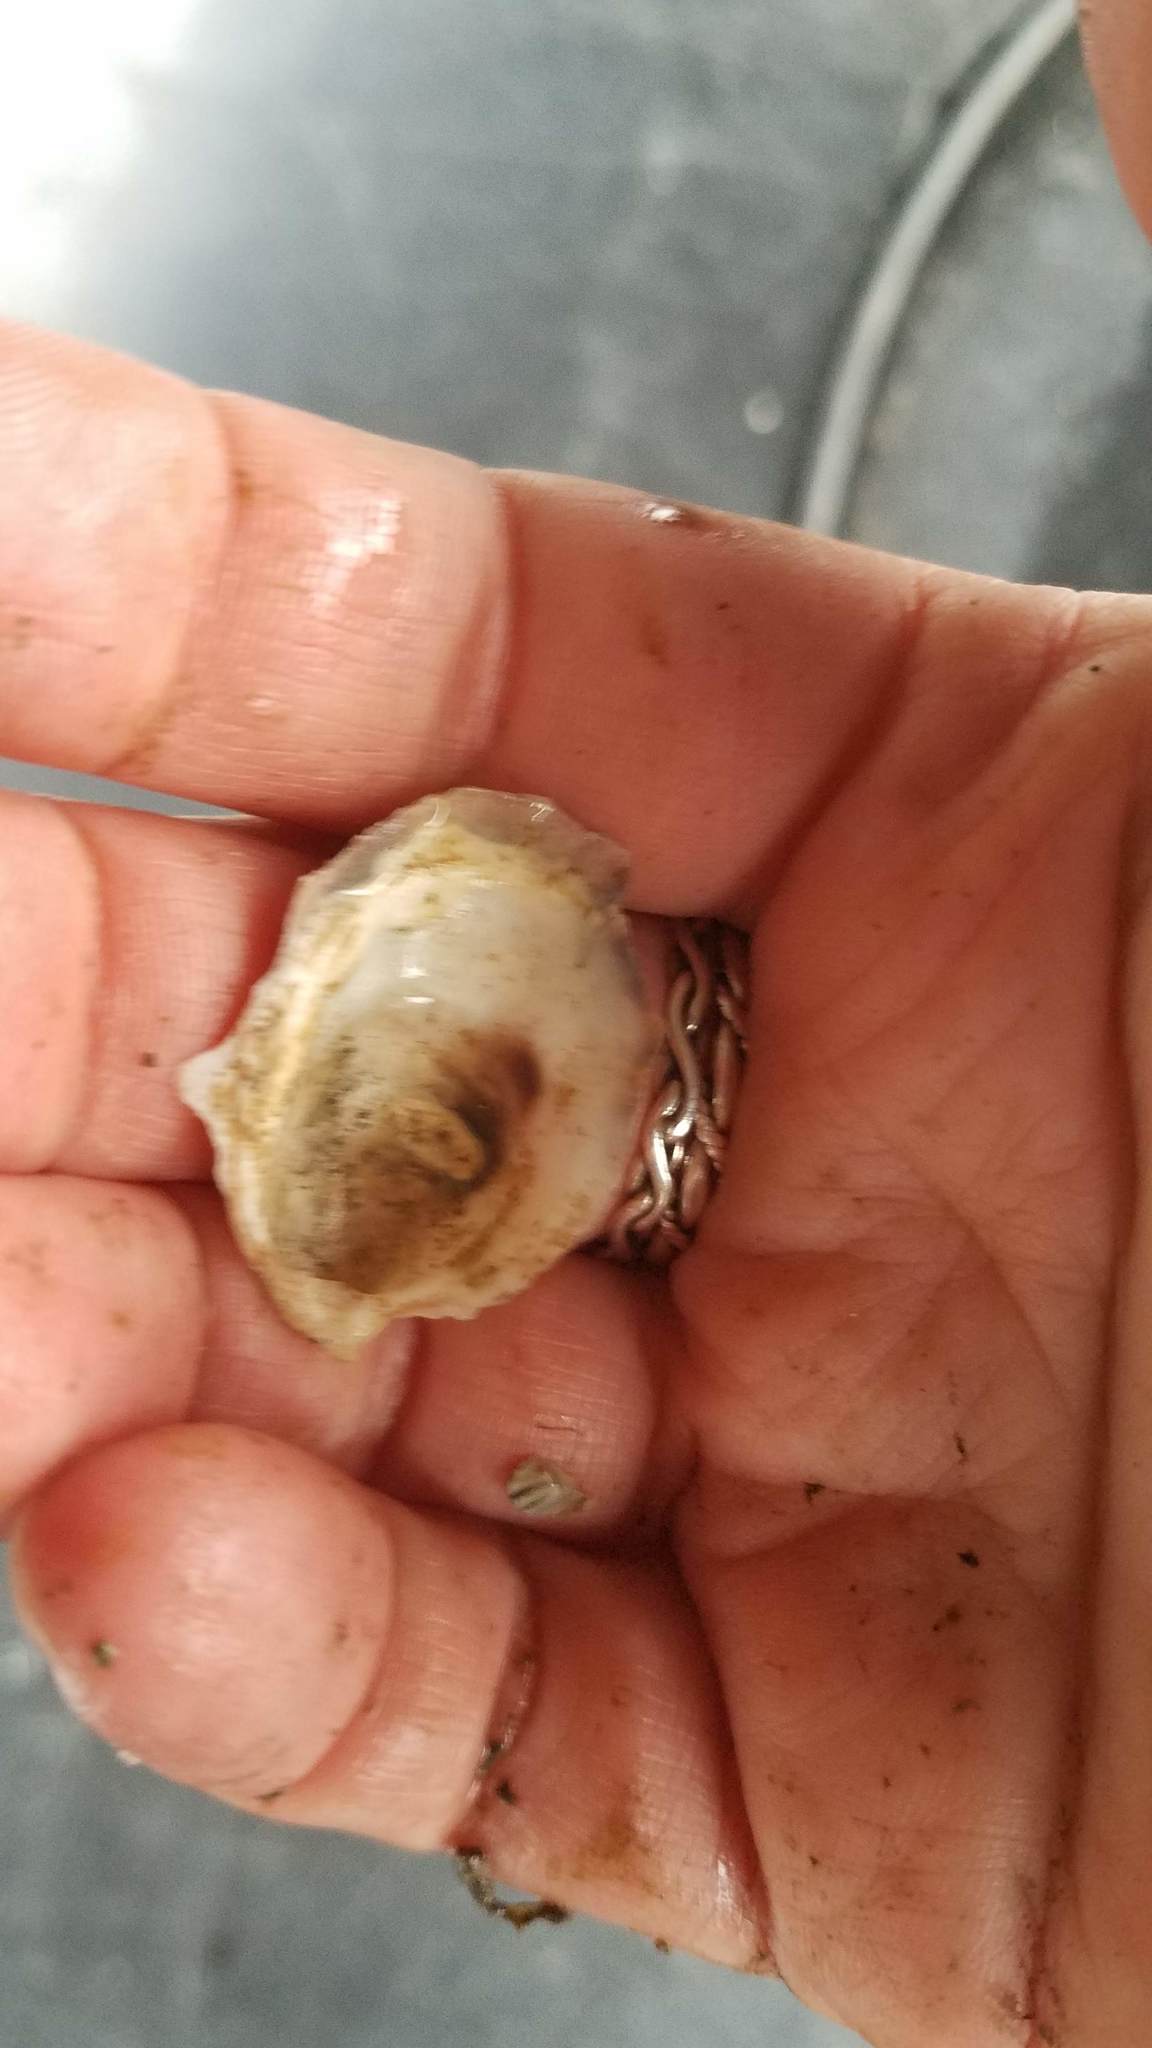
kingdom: Animalia
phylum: Mollusca
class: Bivalvia
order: Ostreida
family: Ostreidae
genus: Crassostrea
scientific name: Crassostrea virginica
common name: American oyster
